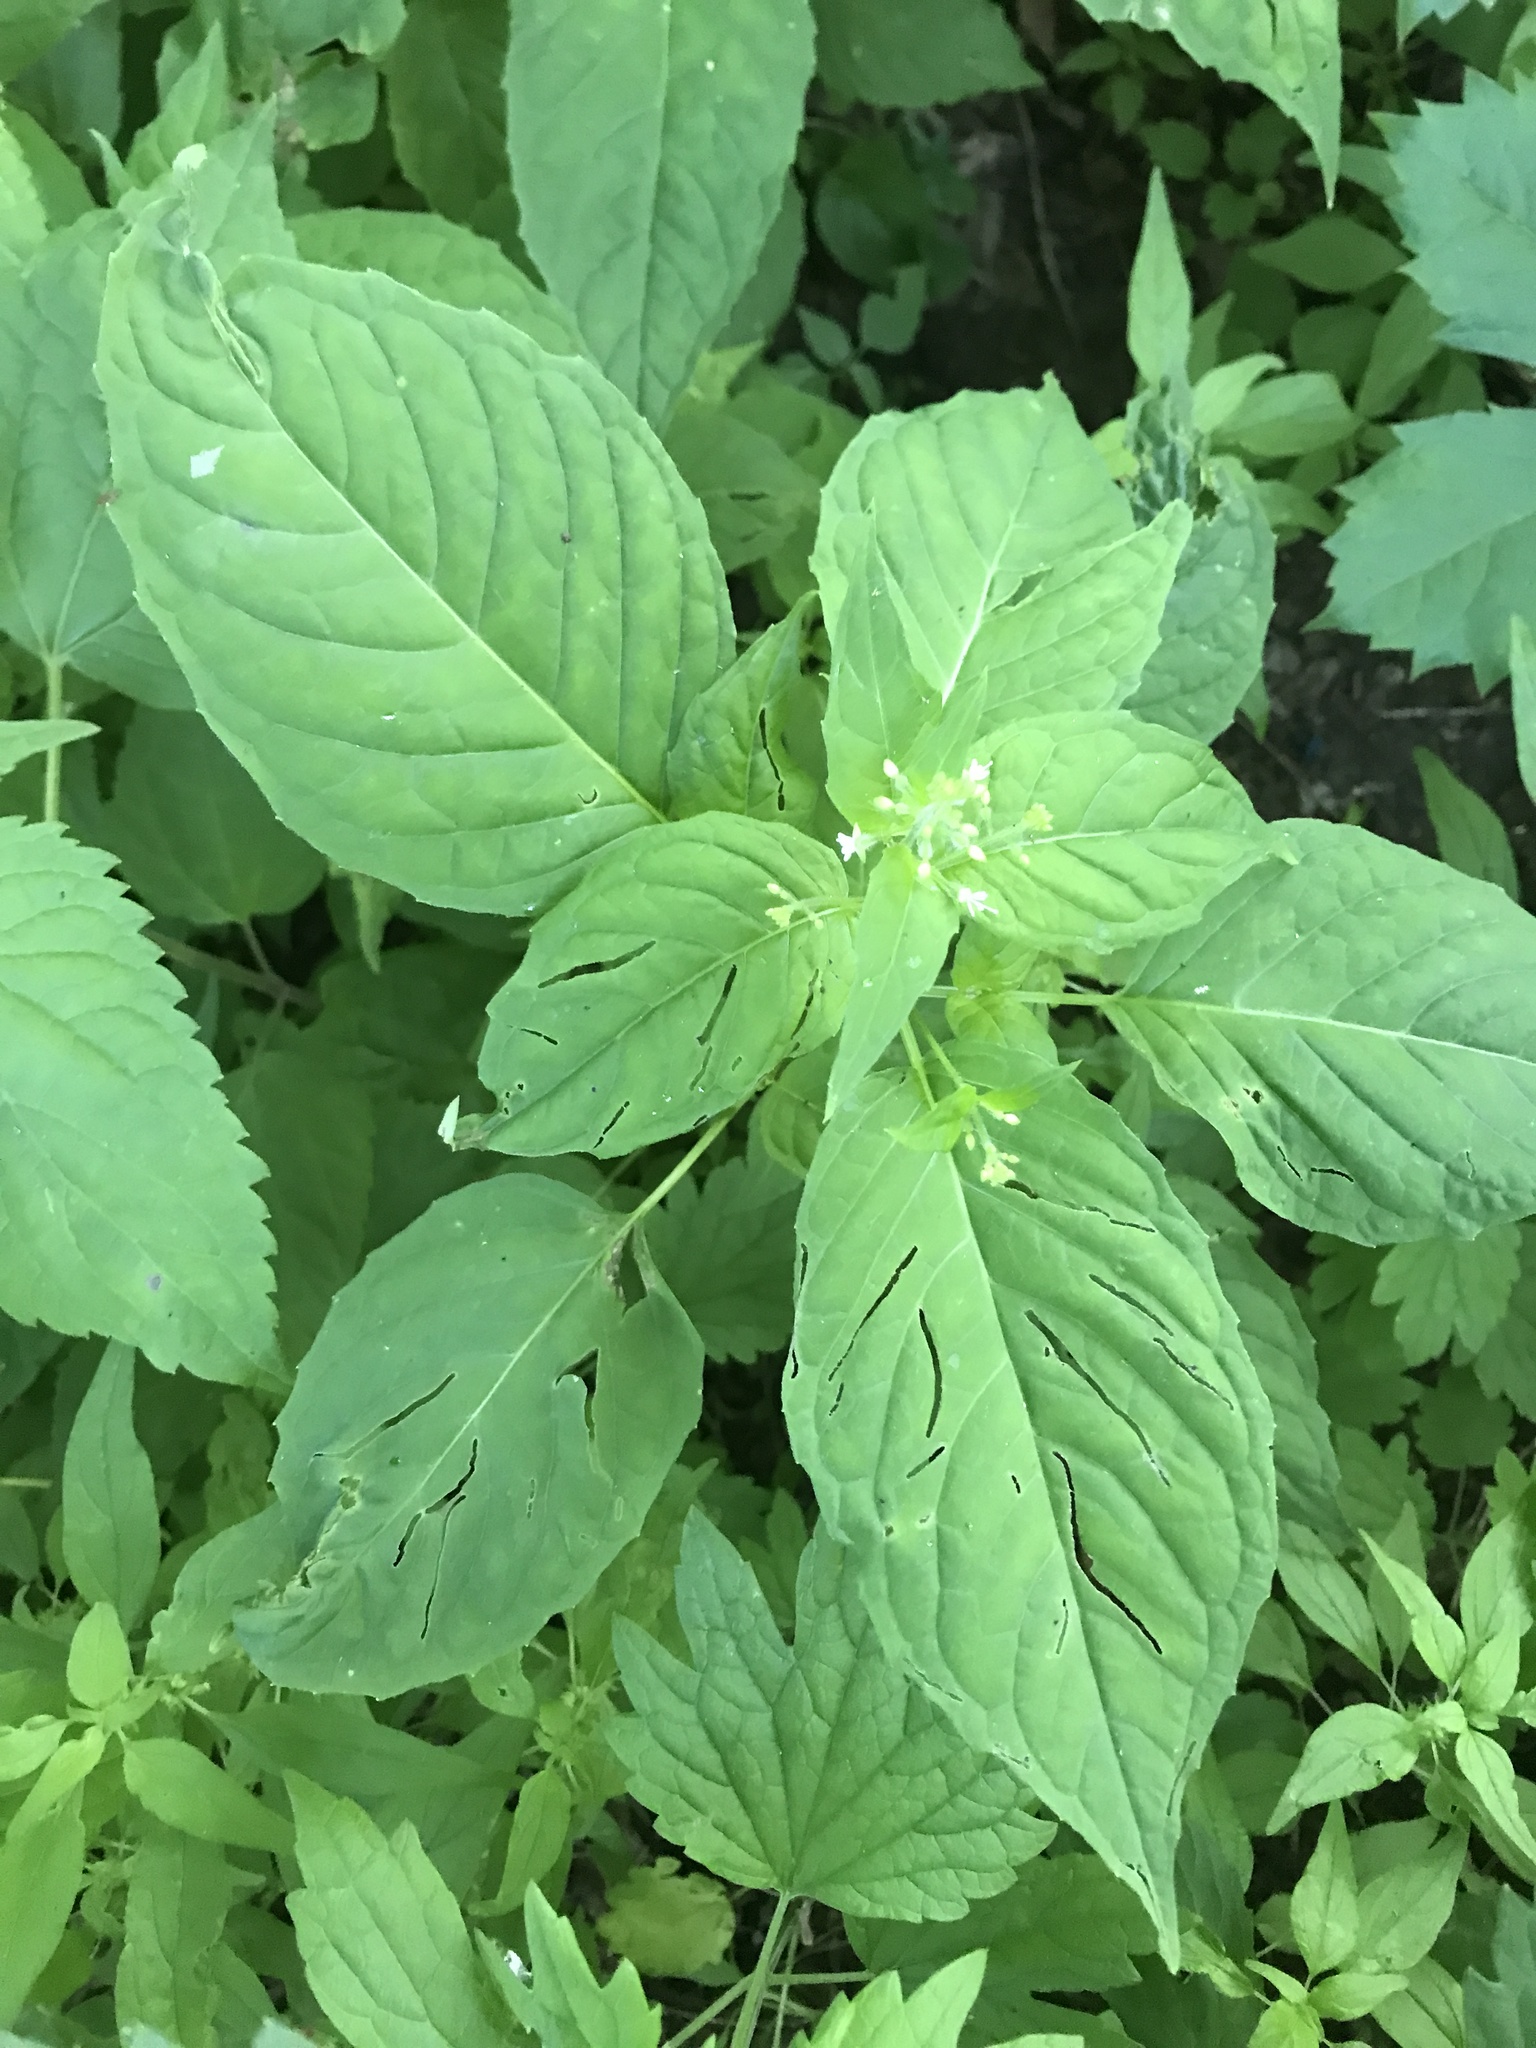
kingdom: Plantae
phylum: Tracheophyta
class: Magnoliopsida
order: Myrtales
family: Onagraceae
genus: Circaea
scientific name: Circaea canadensis
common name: Broad-leaved enchanter's nightshade
